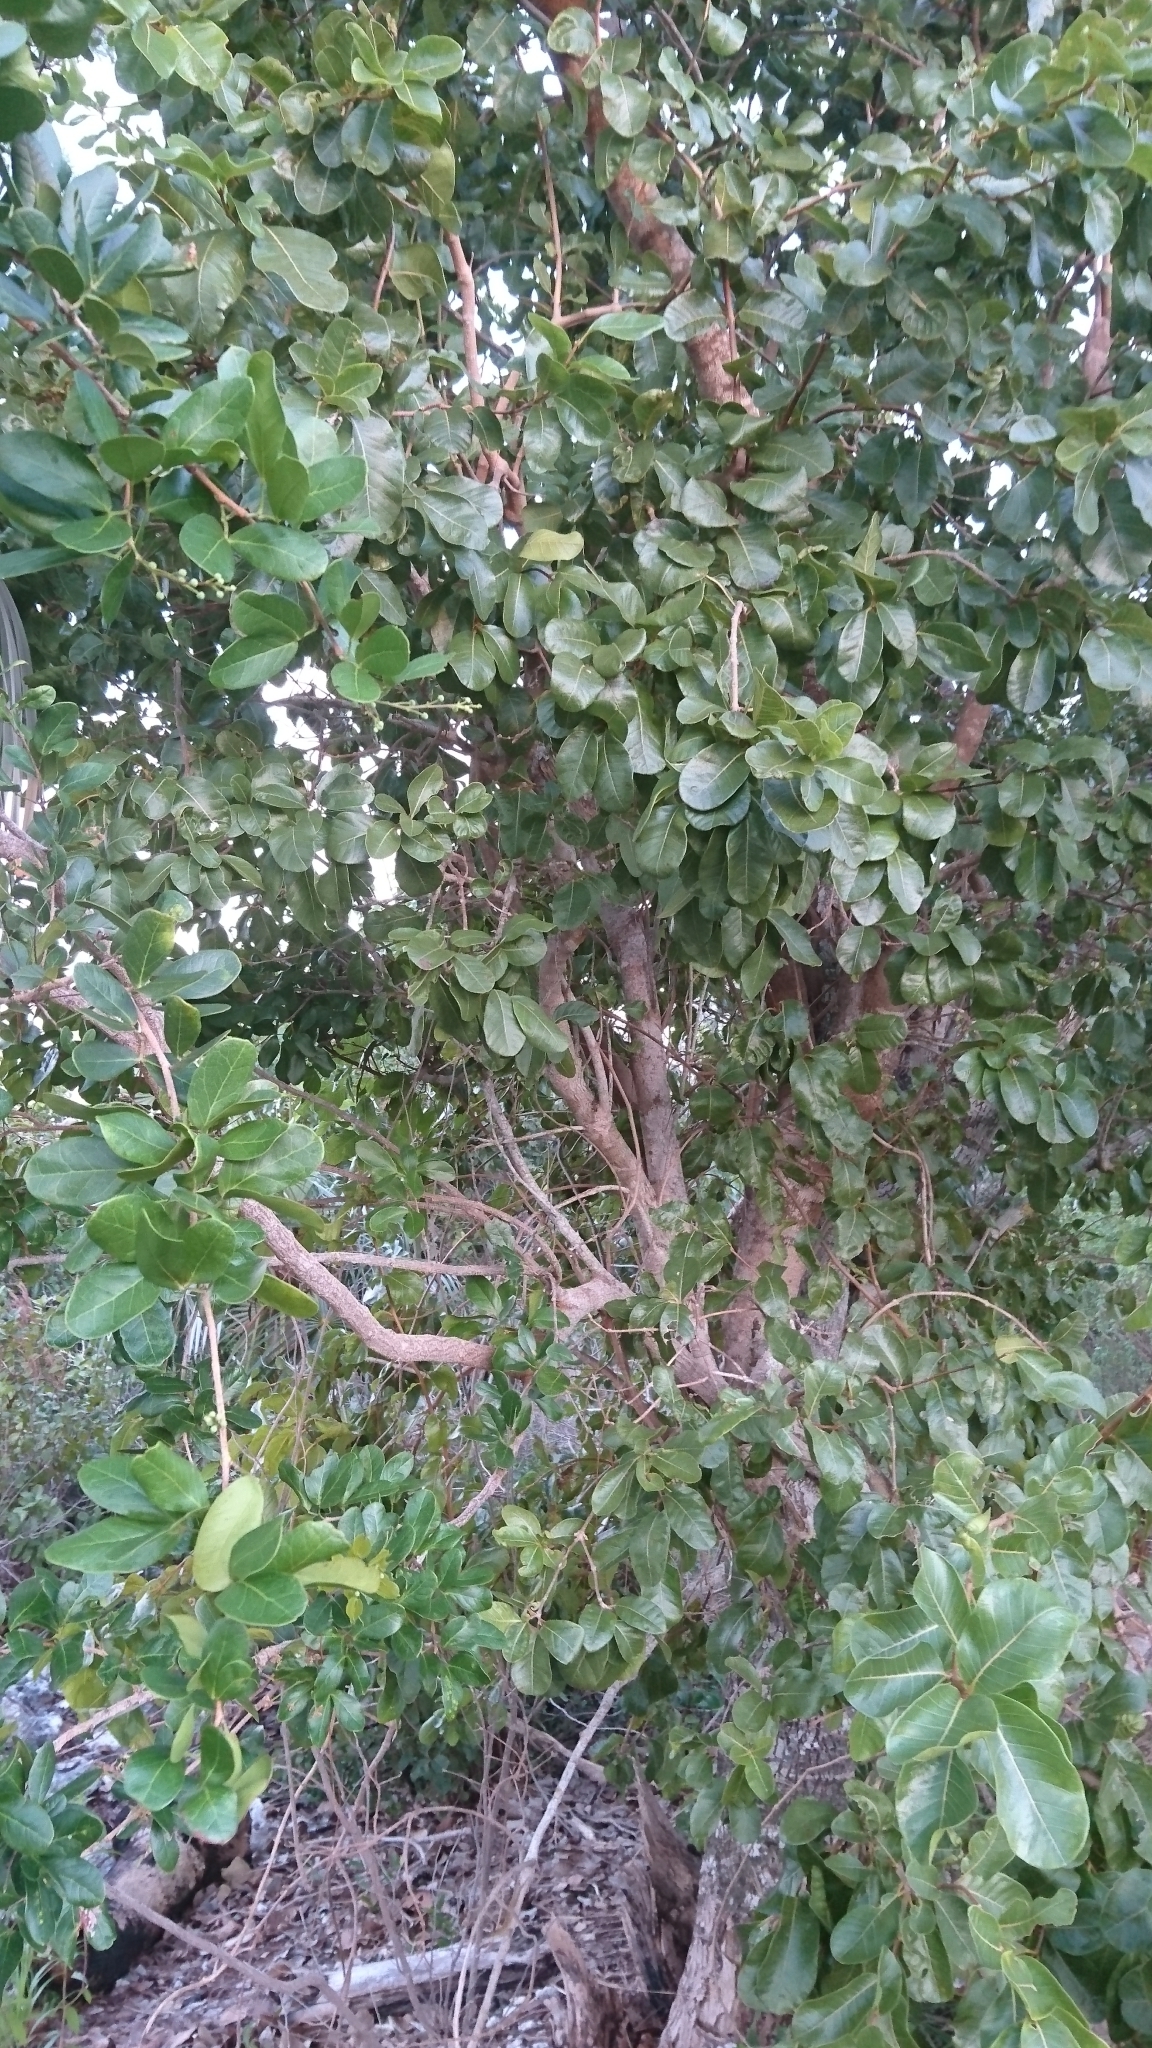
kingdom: Plantae
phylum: Tracheophyta
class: Magnoliopsida
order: Fabales
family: Fabaceae
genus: Pithecellobium
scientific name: Pithecellobium keyense
